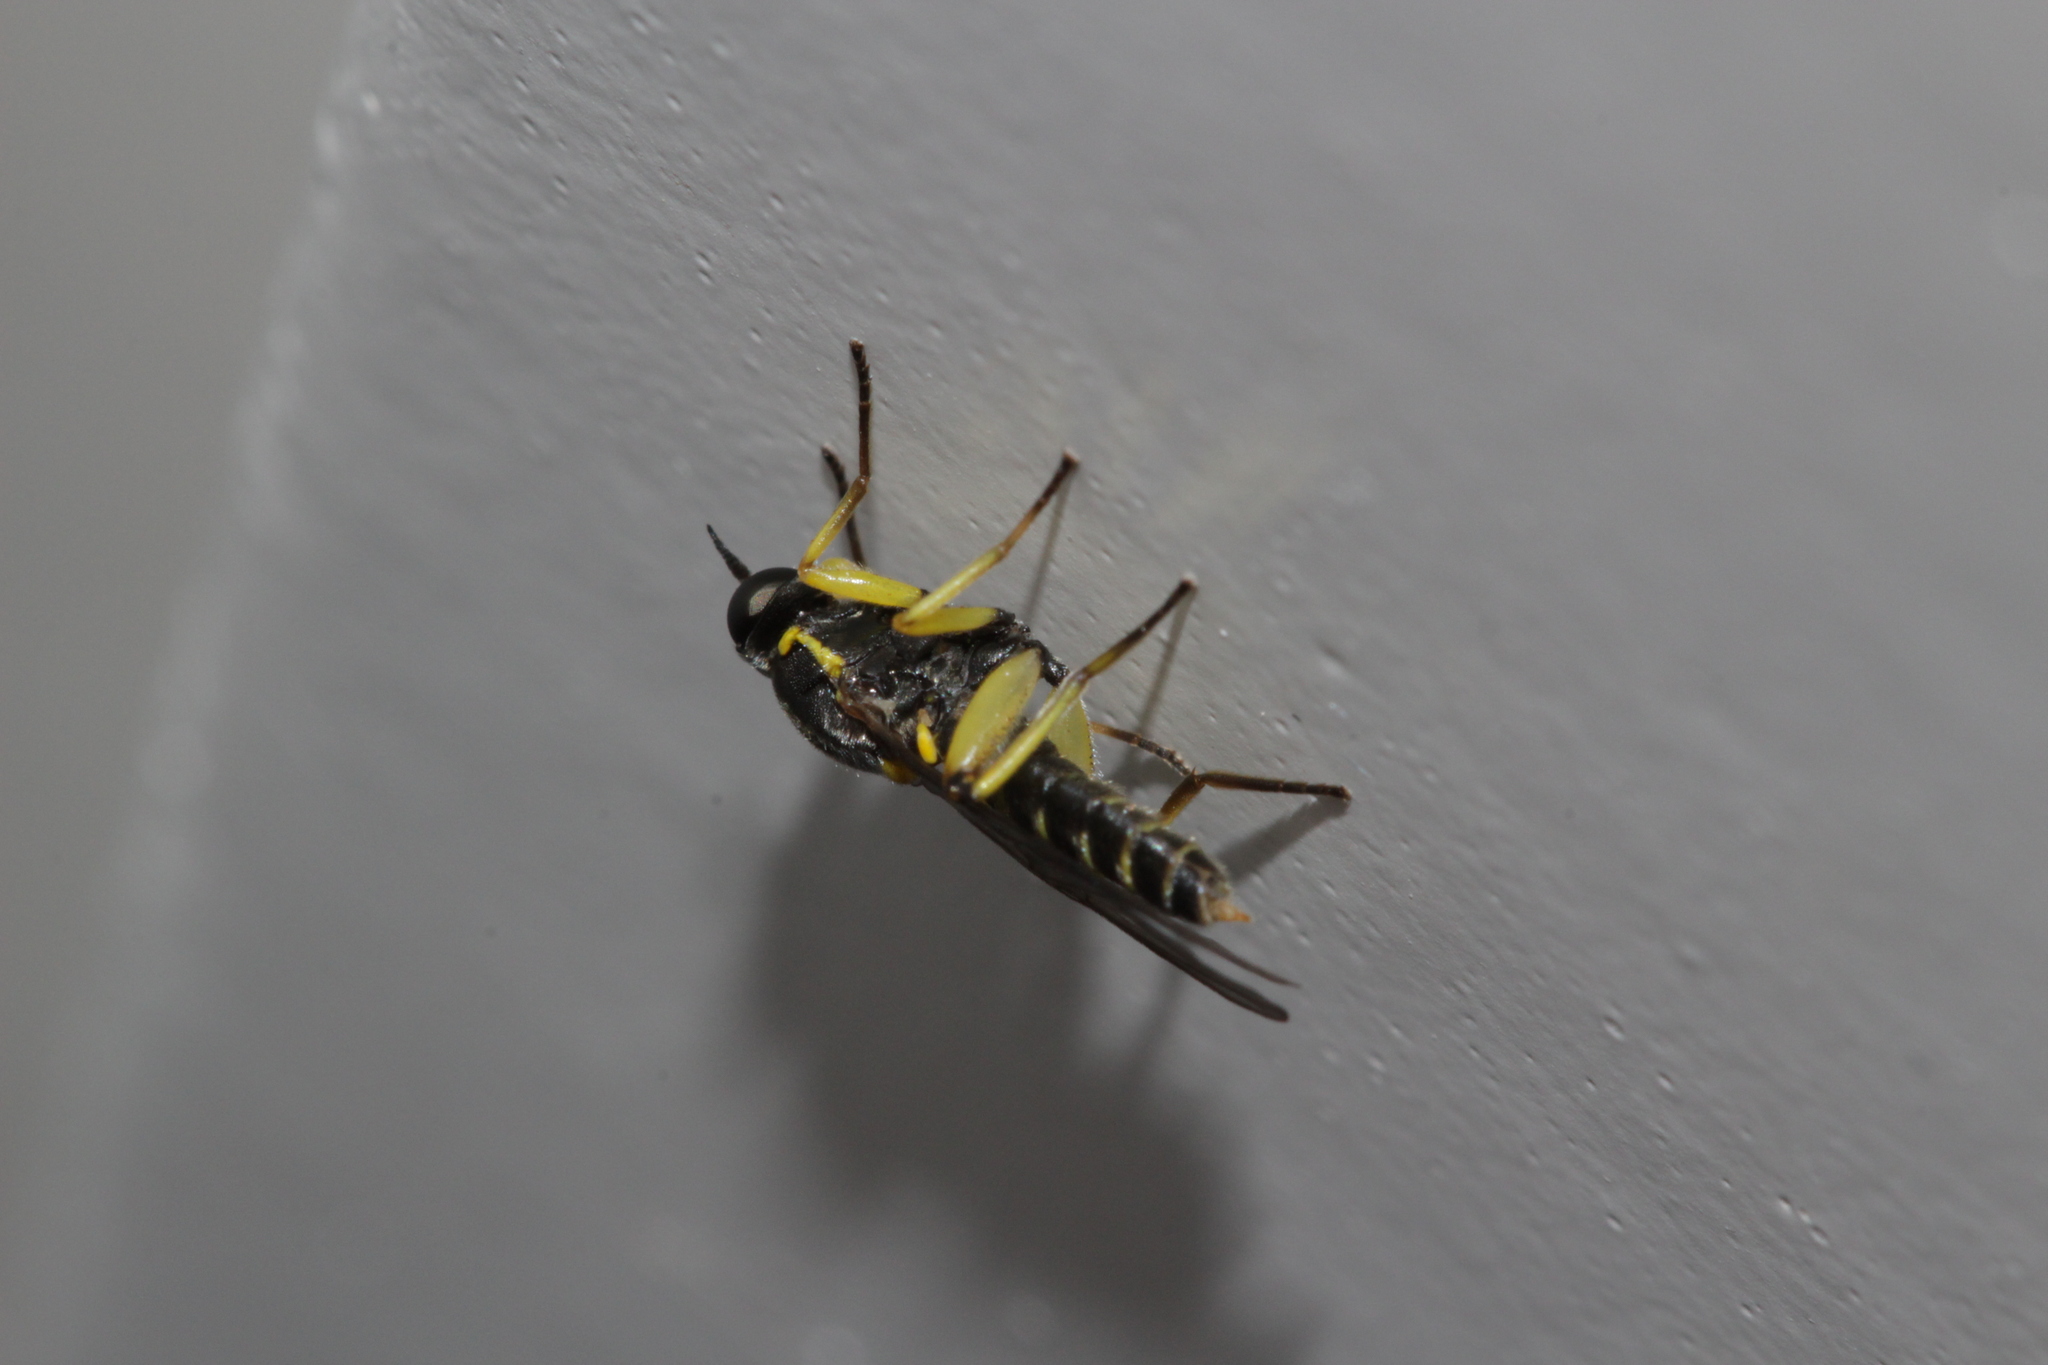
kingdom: Animalia
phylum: Arthropoda
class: Insecta
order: Diptera
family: Xylomyidae
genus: Solva
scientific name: Solva marginata
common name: Drab wood-soldierfly
